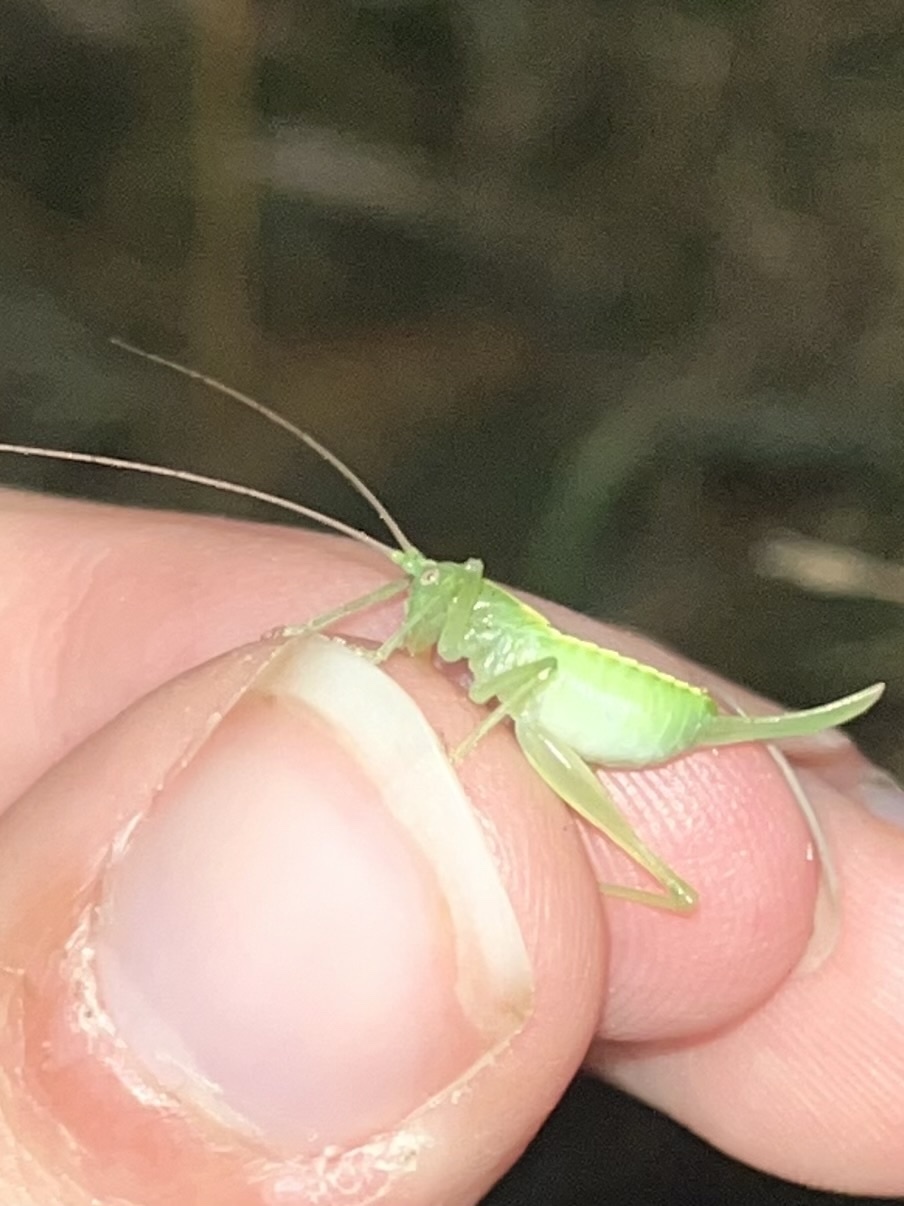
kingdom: Animalia
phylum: Arthropoda
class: Insecta
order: Orthoptera
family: Tettigoniidae
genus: Meconema
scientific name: Meconema meridionale
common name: Southern oak bush-cricket
